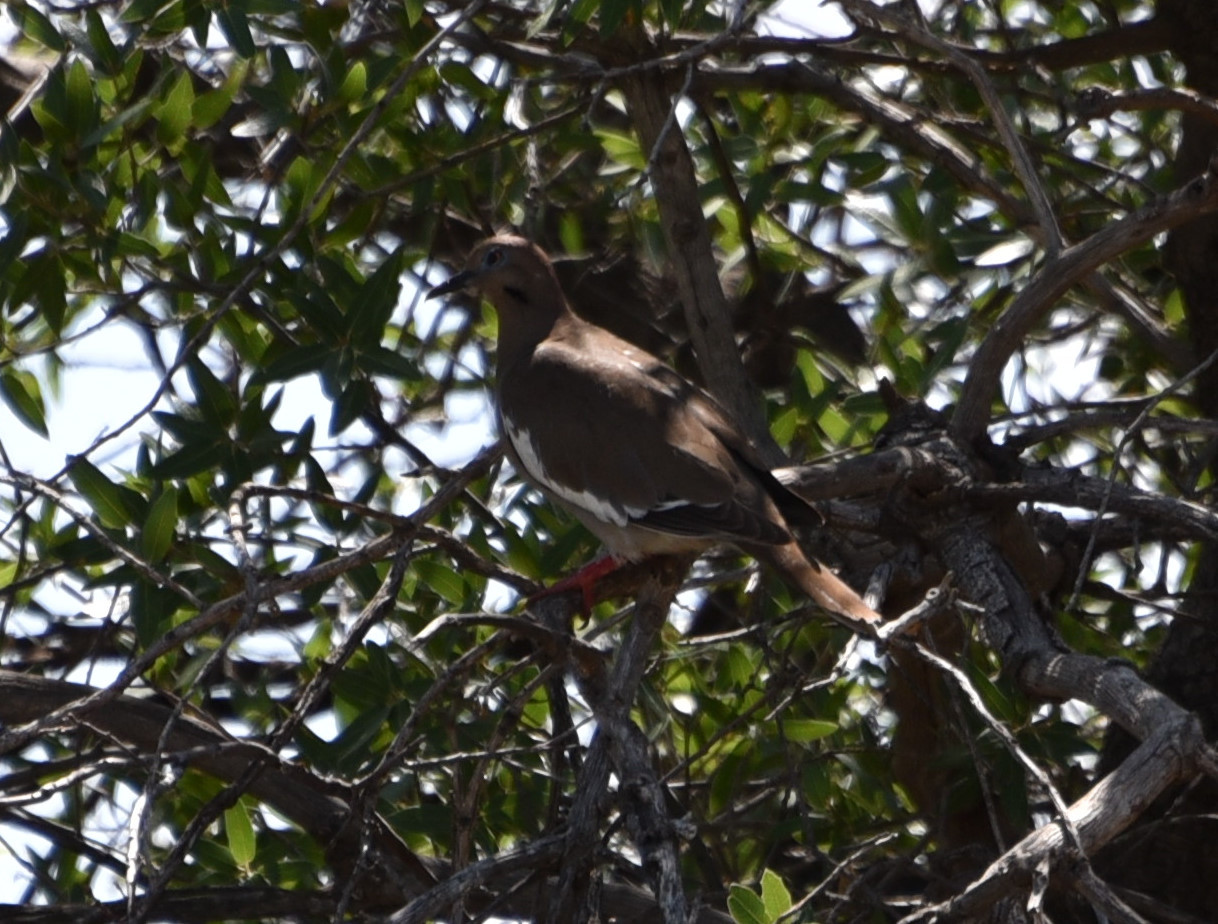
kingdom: Animalia
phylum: Chordata
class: Aves
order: Columbiformes
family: Columbidae
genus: Zenaida
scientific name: Zenaida asiatica
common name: White-winged dove
